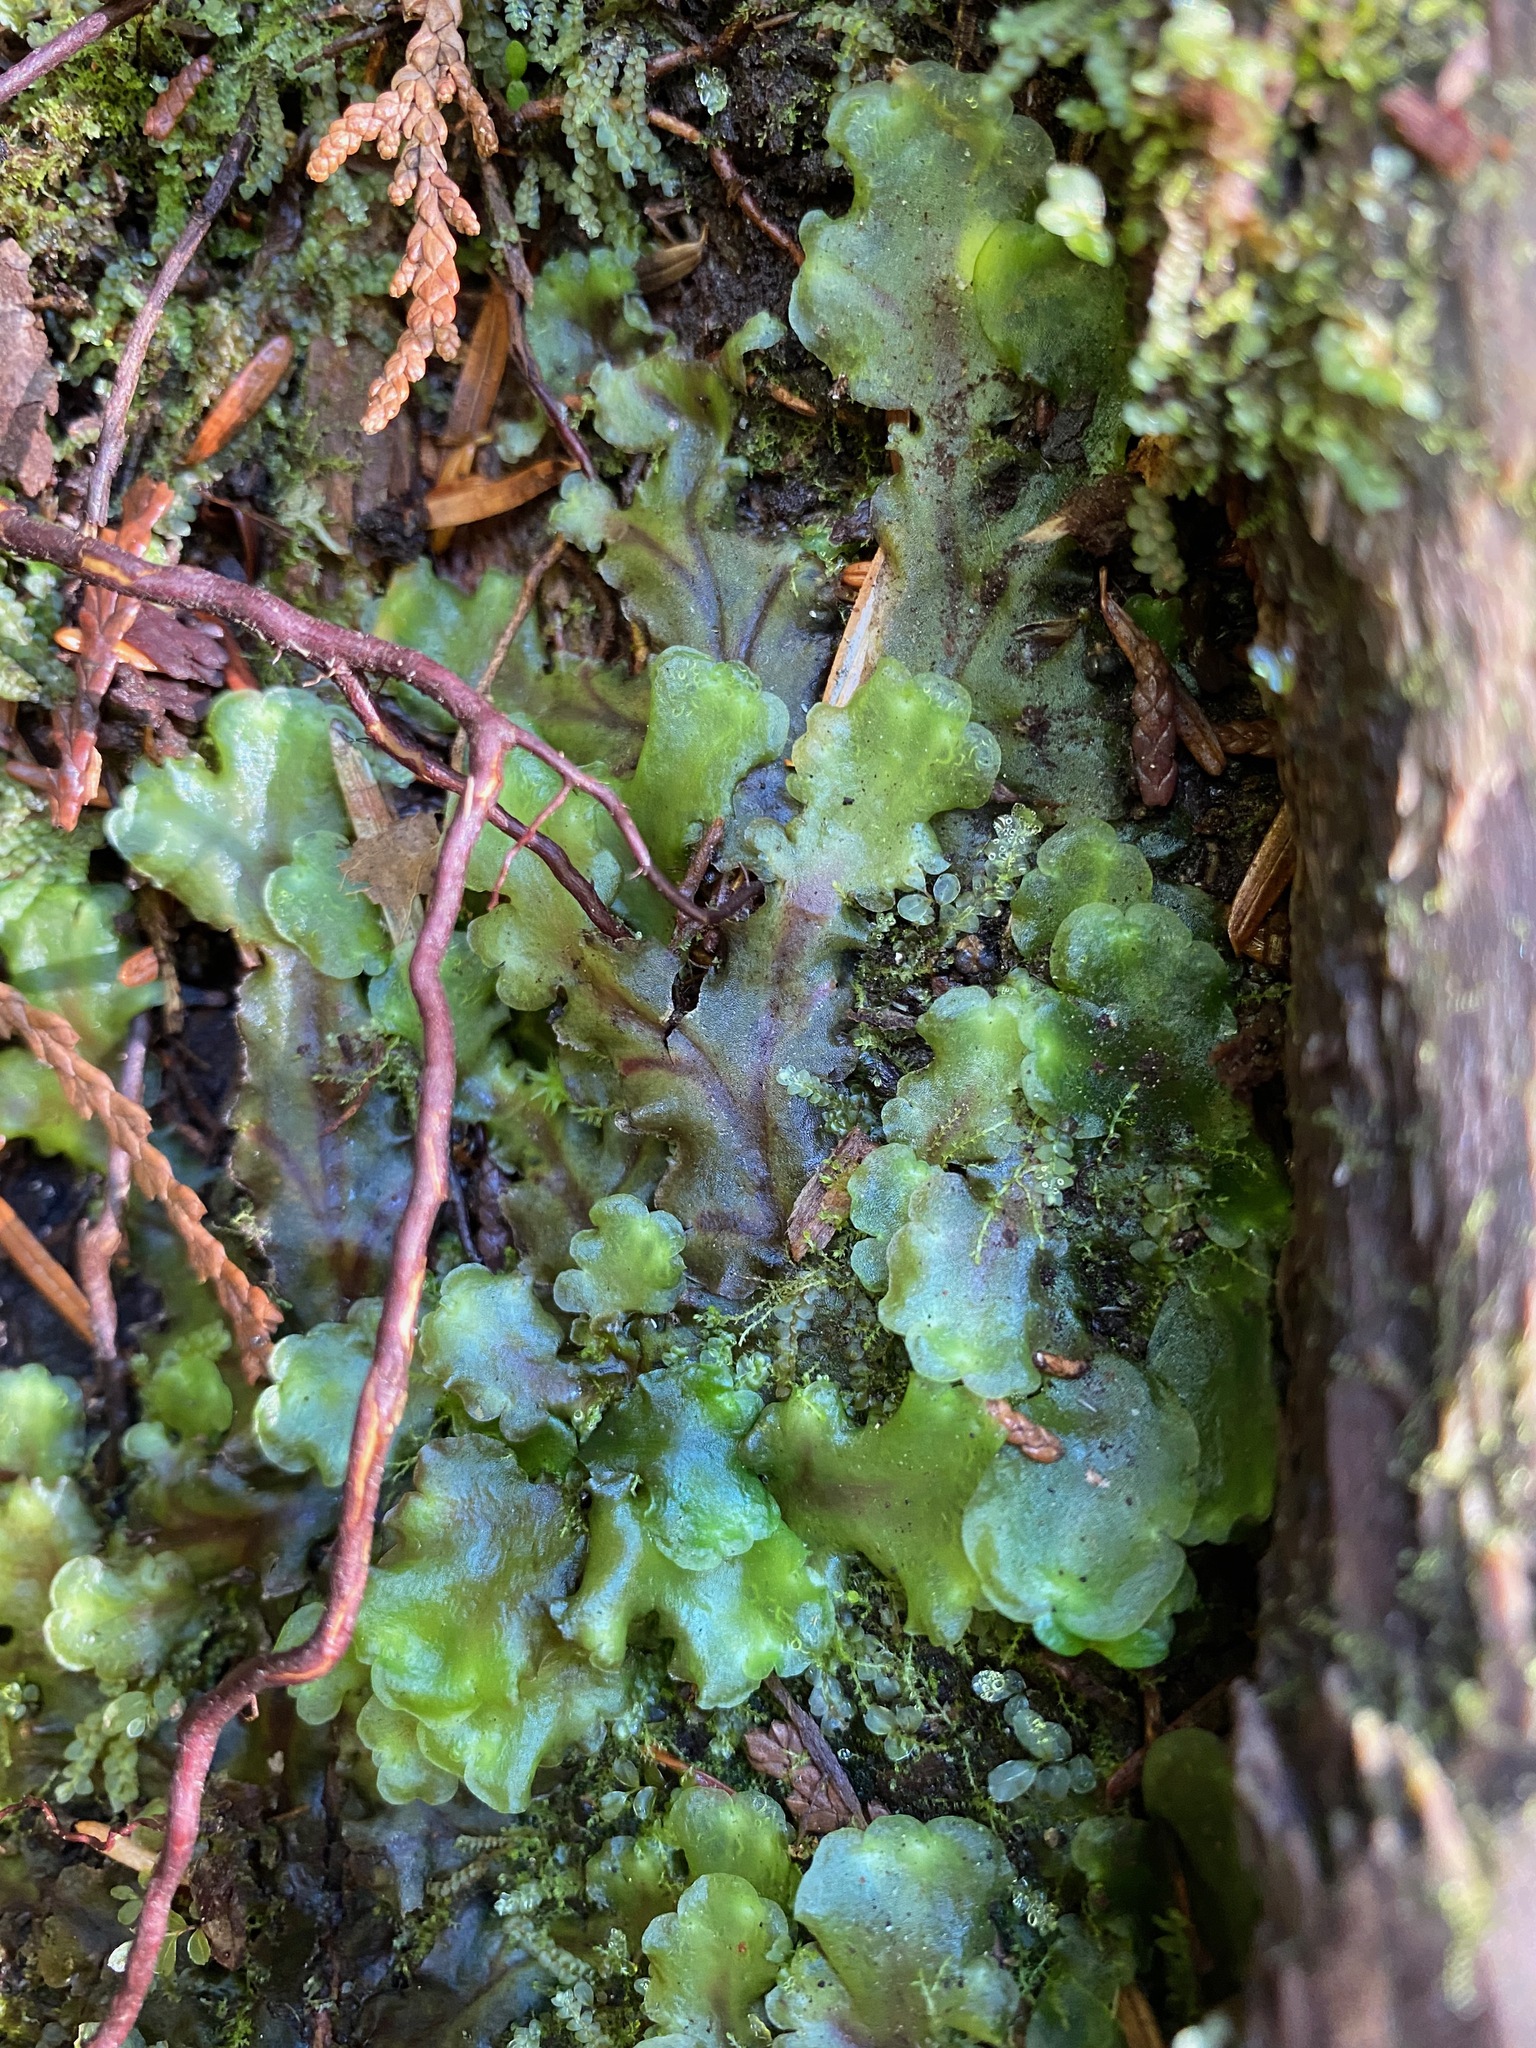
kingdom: Plantae
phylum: Marchantiophyta
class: Jungermanniopsida
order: Pelliales
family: Pelliaceae
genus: Pellia
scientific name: Pellia neesiana
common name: Nees  pellia
